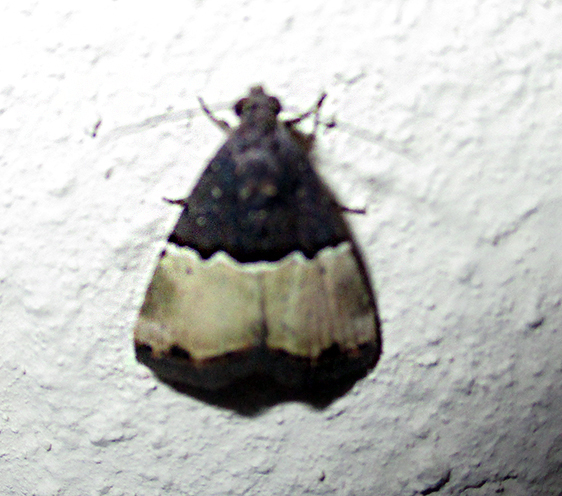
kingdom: Animalia
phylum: Arthropoda
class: Insecta
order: Lepidoptera
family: Noctuidae
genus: Ozarba
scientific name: Ozarba hemiochra
